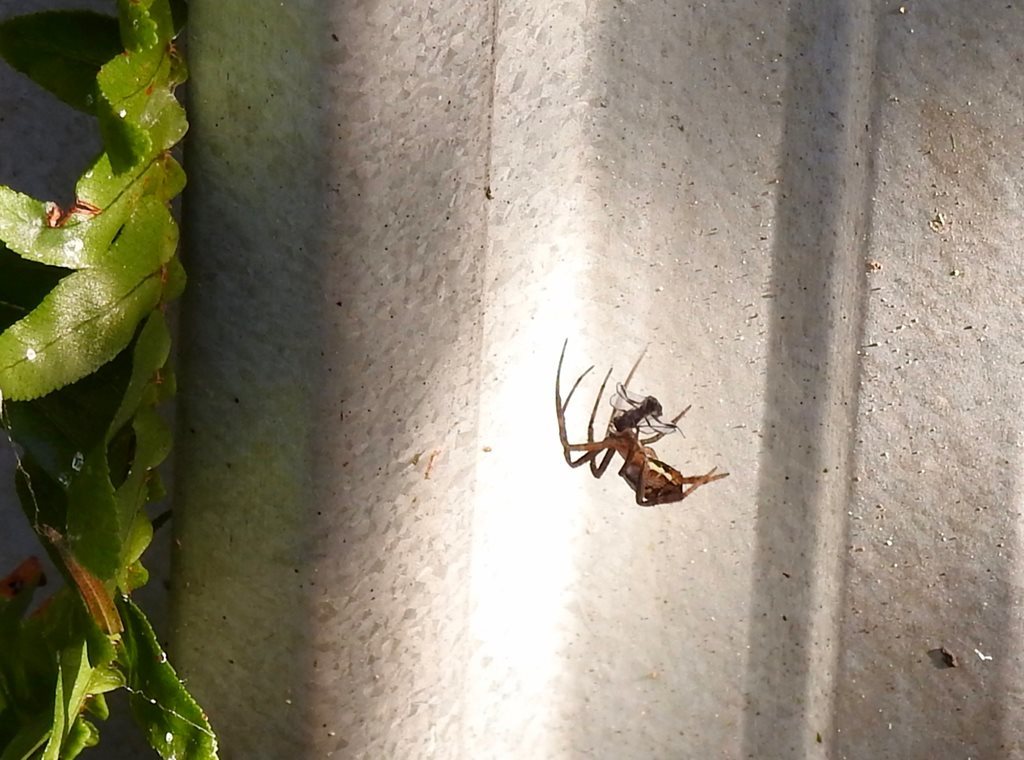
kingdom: Animalia
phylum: Arthropoda
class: Arachnida
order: Araneae
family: Araneidae
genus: Argiope
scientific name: Argiope keyserlingi
